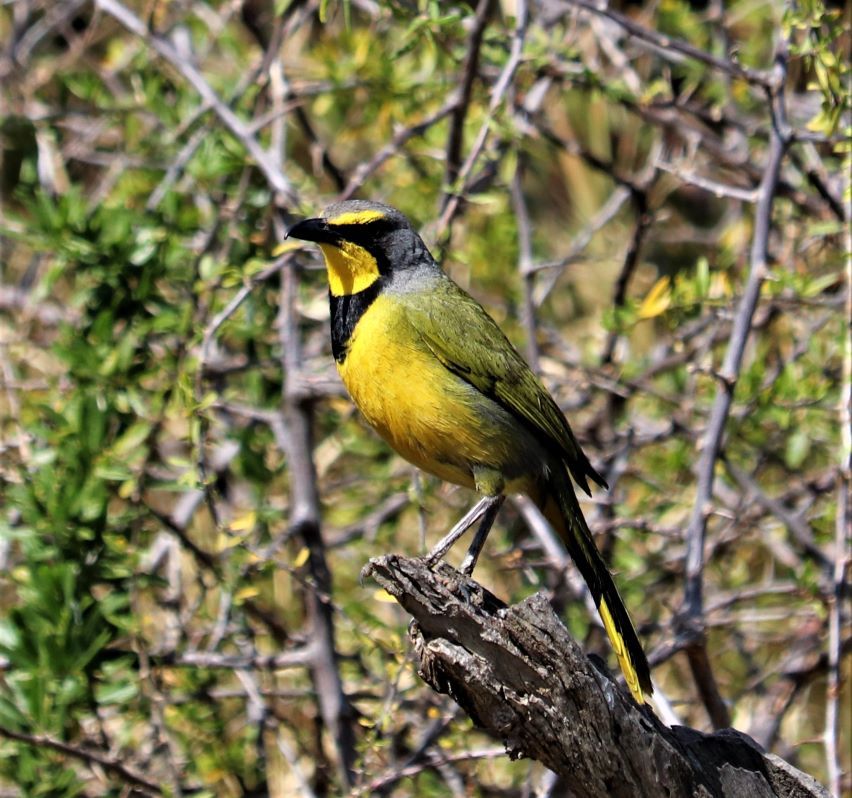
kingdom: Animalia
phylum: Chordata
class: Aves
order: Passeriformes
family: Malaconotidae
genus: Telophorus
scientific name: Telophorus zeylonus
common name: Bokmakierie
